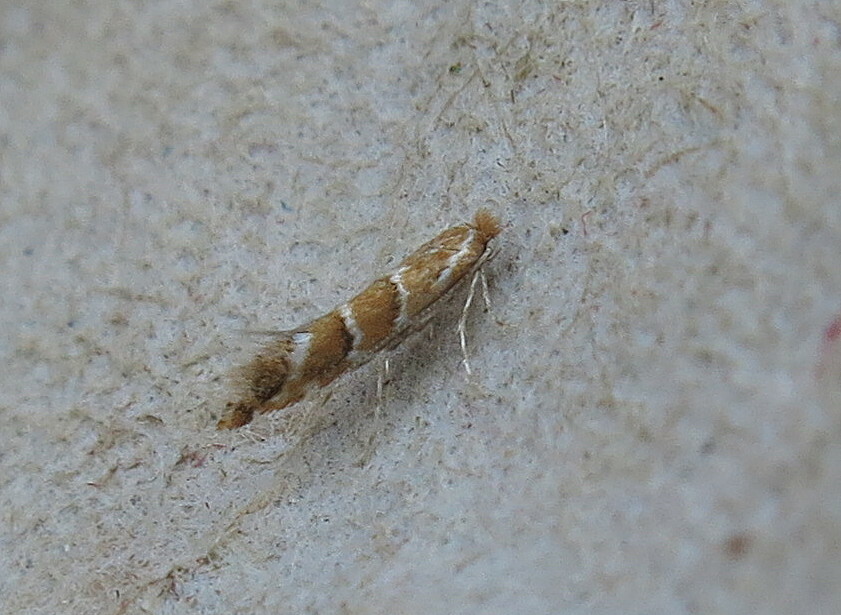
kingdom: Animalia
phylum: Arthropoda
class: Insecta
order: Lepidoptera
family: Gracillariidae
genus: Cameraria
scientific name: Cameraria ohridella
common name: Horse-chestnut leaf-miner
